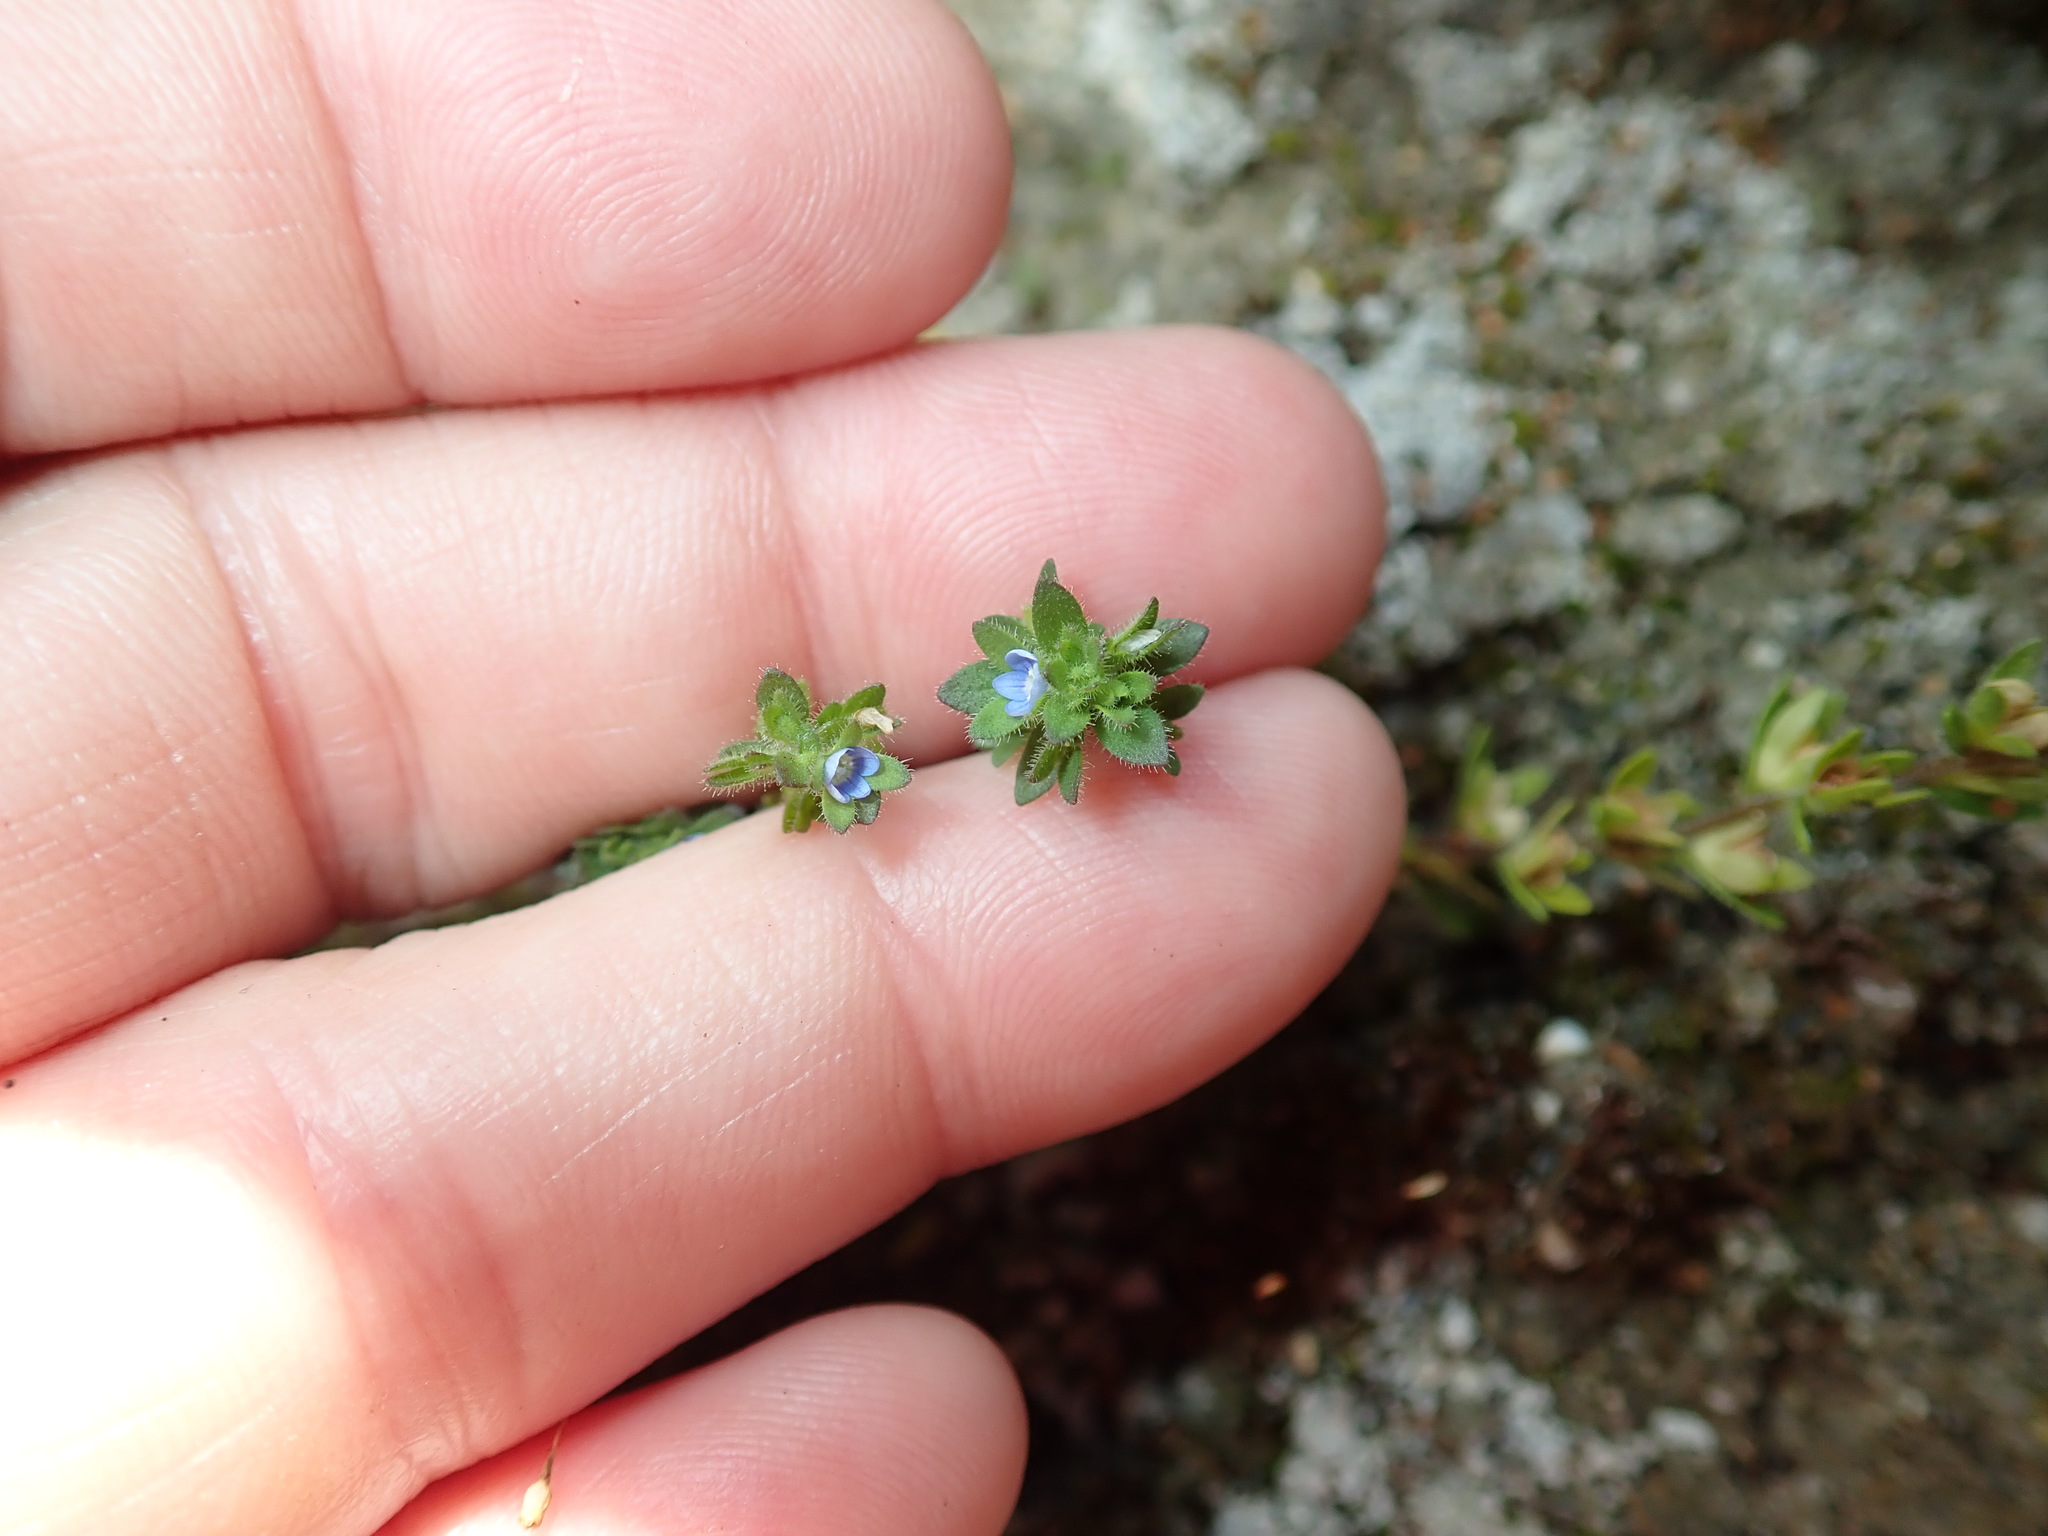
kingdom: Plantae
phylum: Tracheophyta
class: Magnoliopsida
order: Lamiales
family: Plantaginaceae
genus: Veronica
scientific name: Veronica arvensis
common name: Corn speedwell
